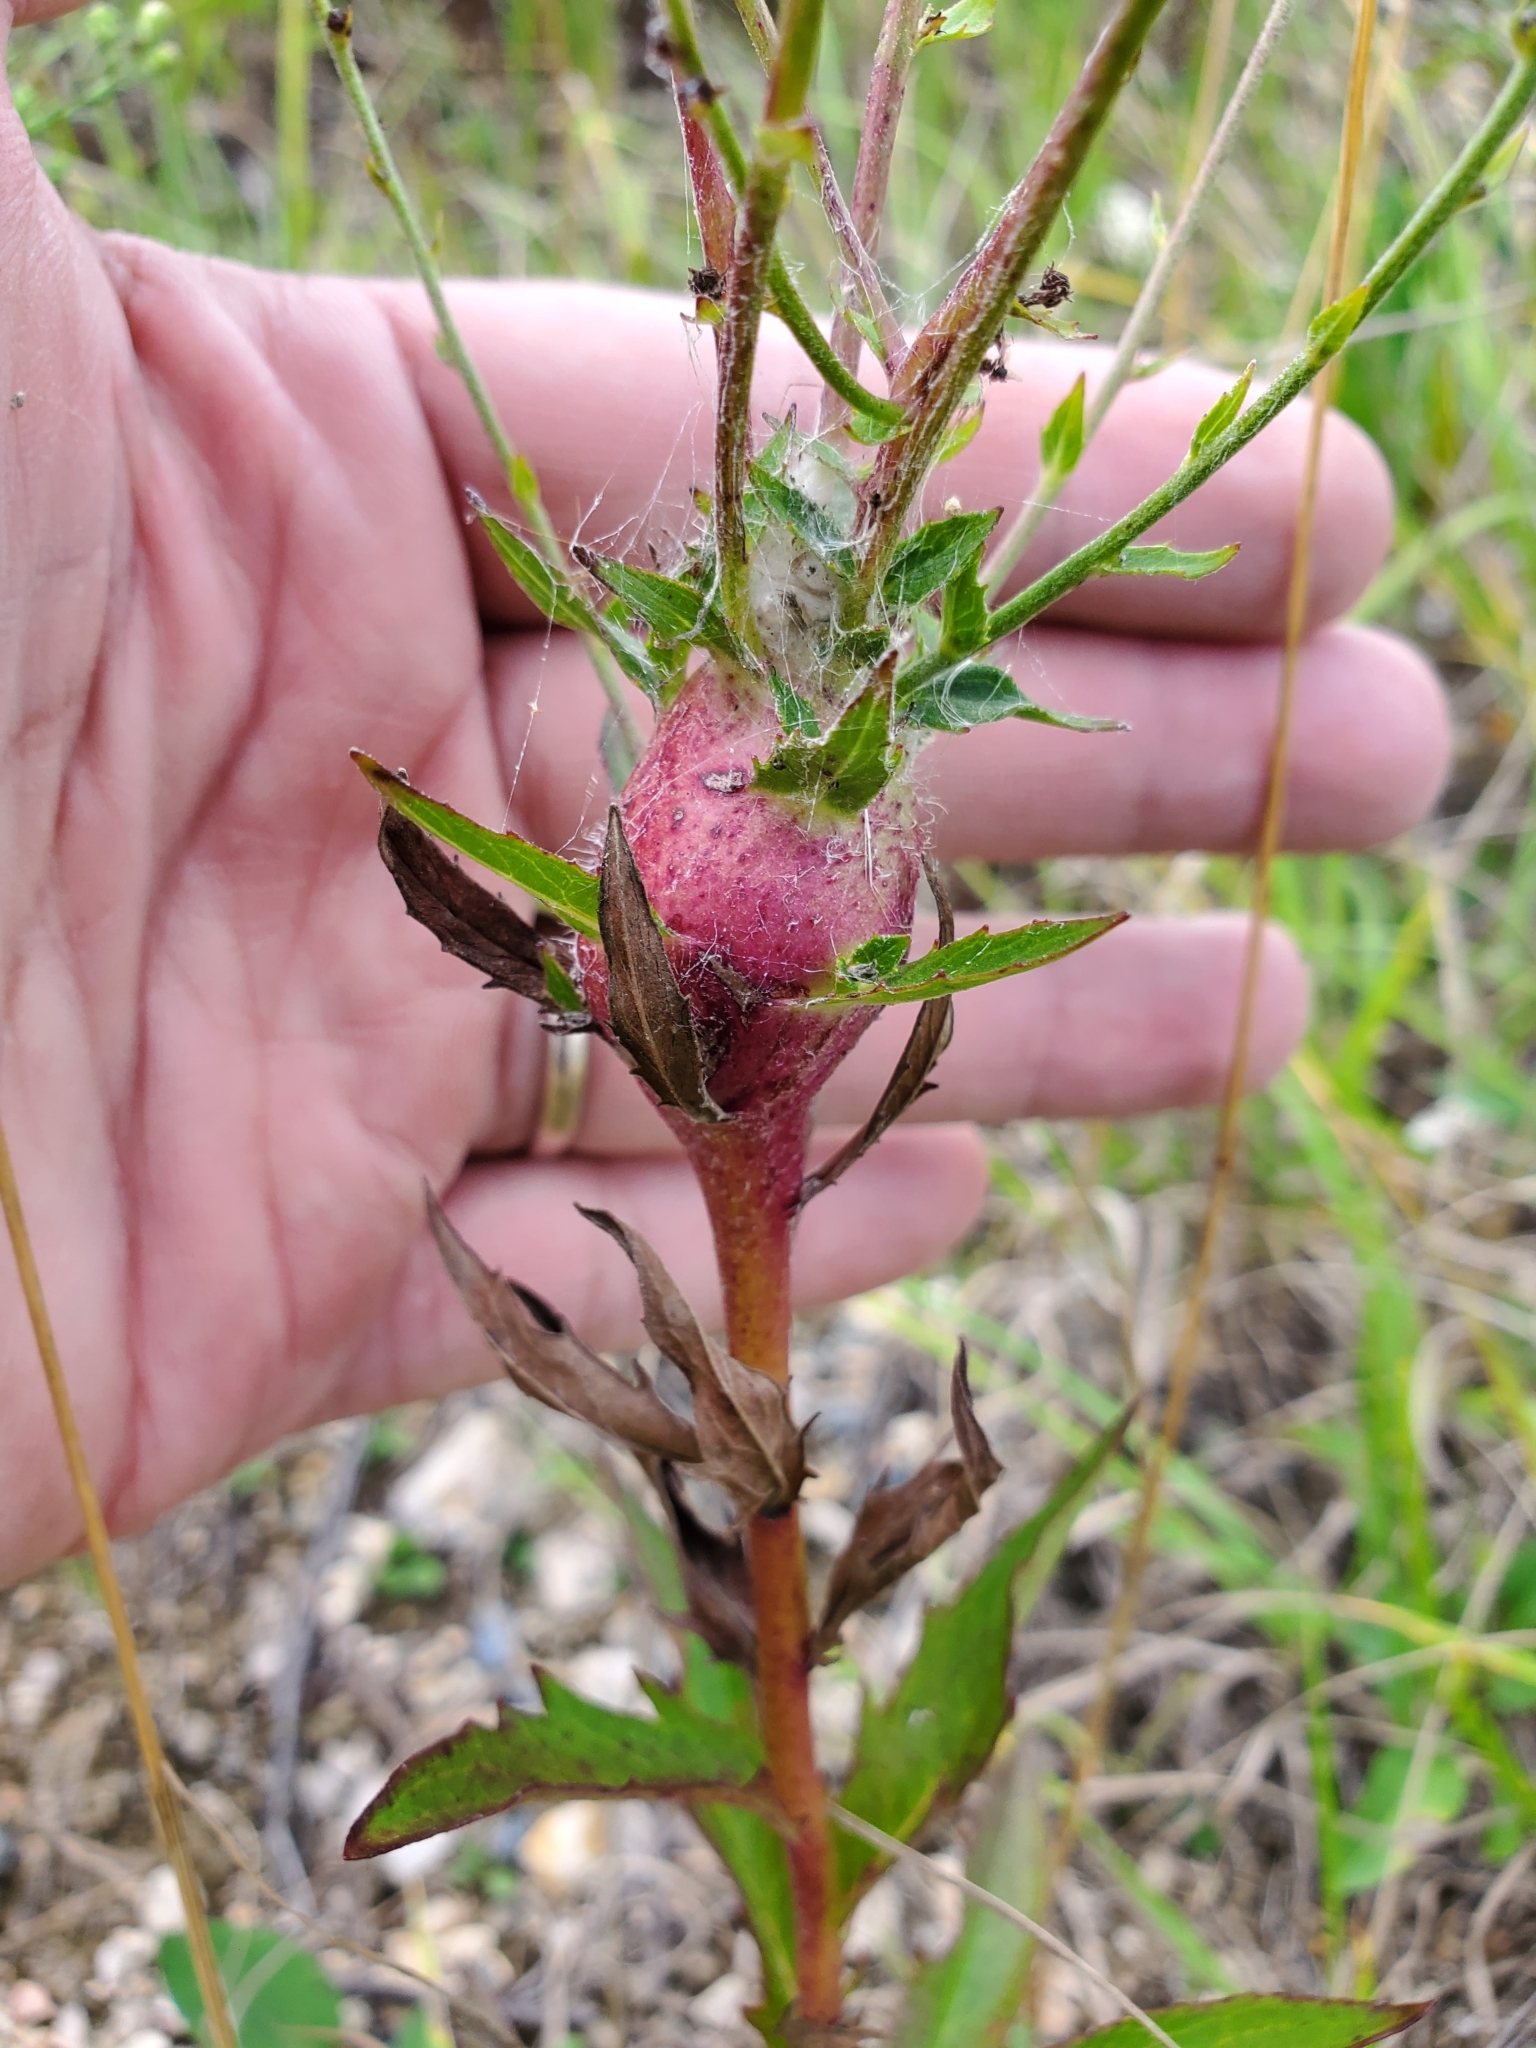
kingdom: Animalia
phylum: Arthropoda
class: Insecta
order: Hymenoptera
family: Cynipidae
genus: Aulacidea
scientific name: Aulacidea hieracii
